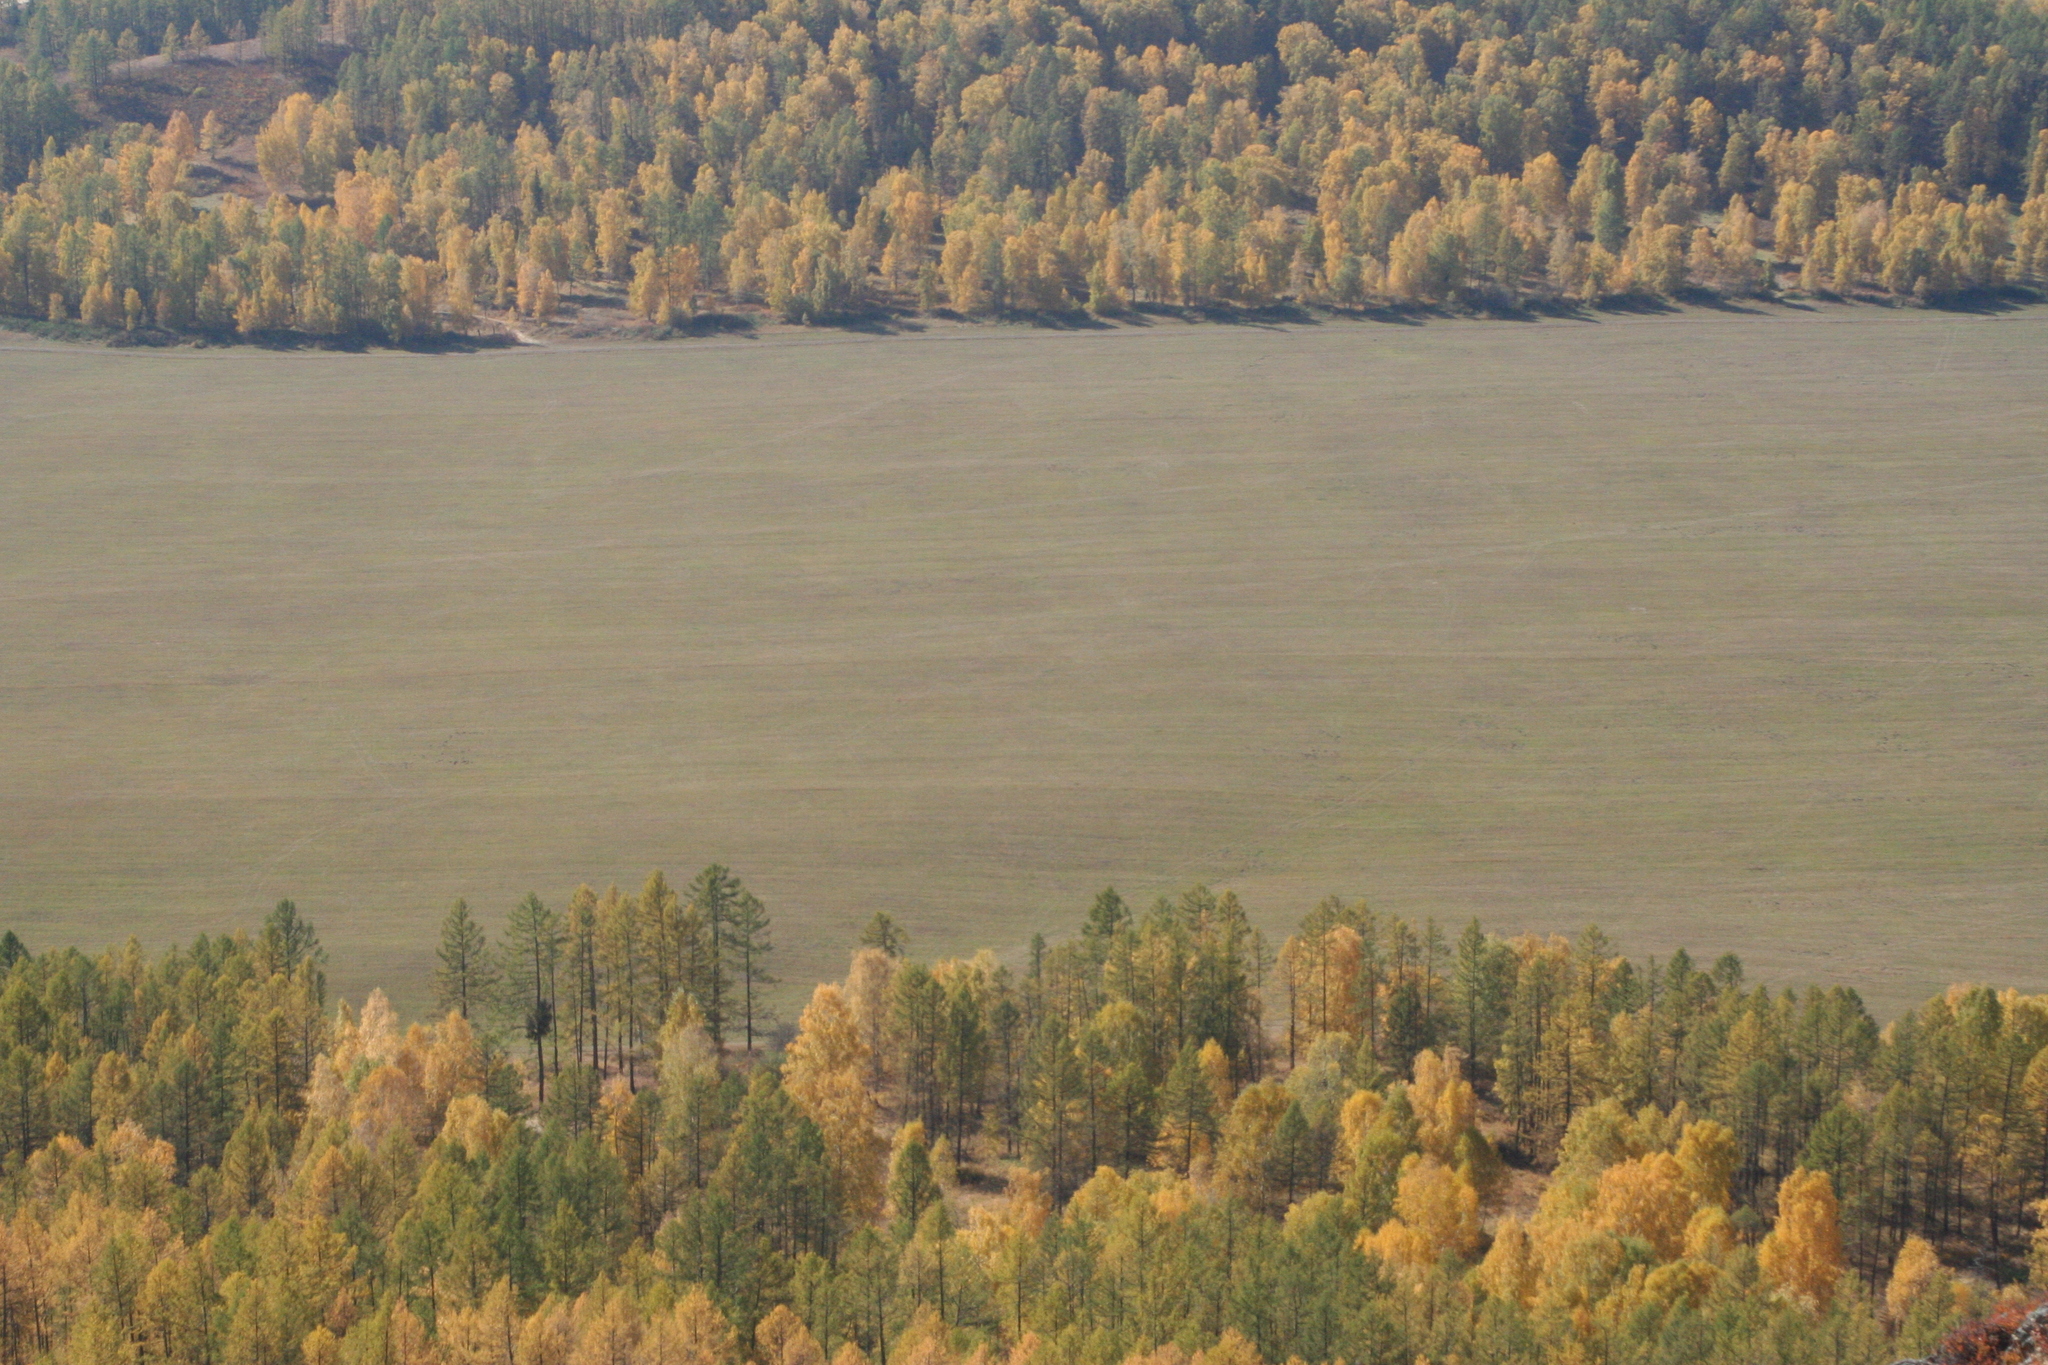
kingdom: Plantae
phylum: Tracheophyta
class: Pinopsida
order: Pinales
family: Pinaceae
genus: Larix
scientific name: Larix sibirica
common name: Siberian larch
